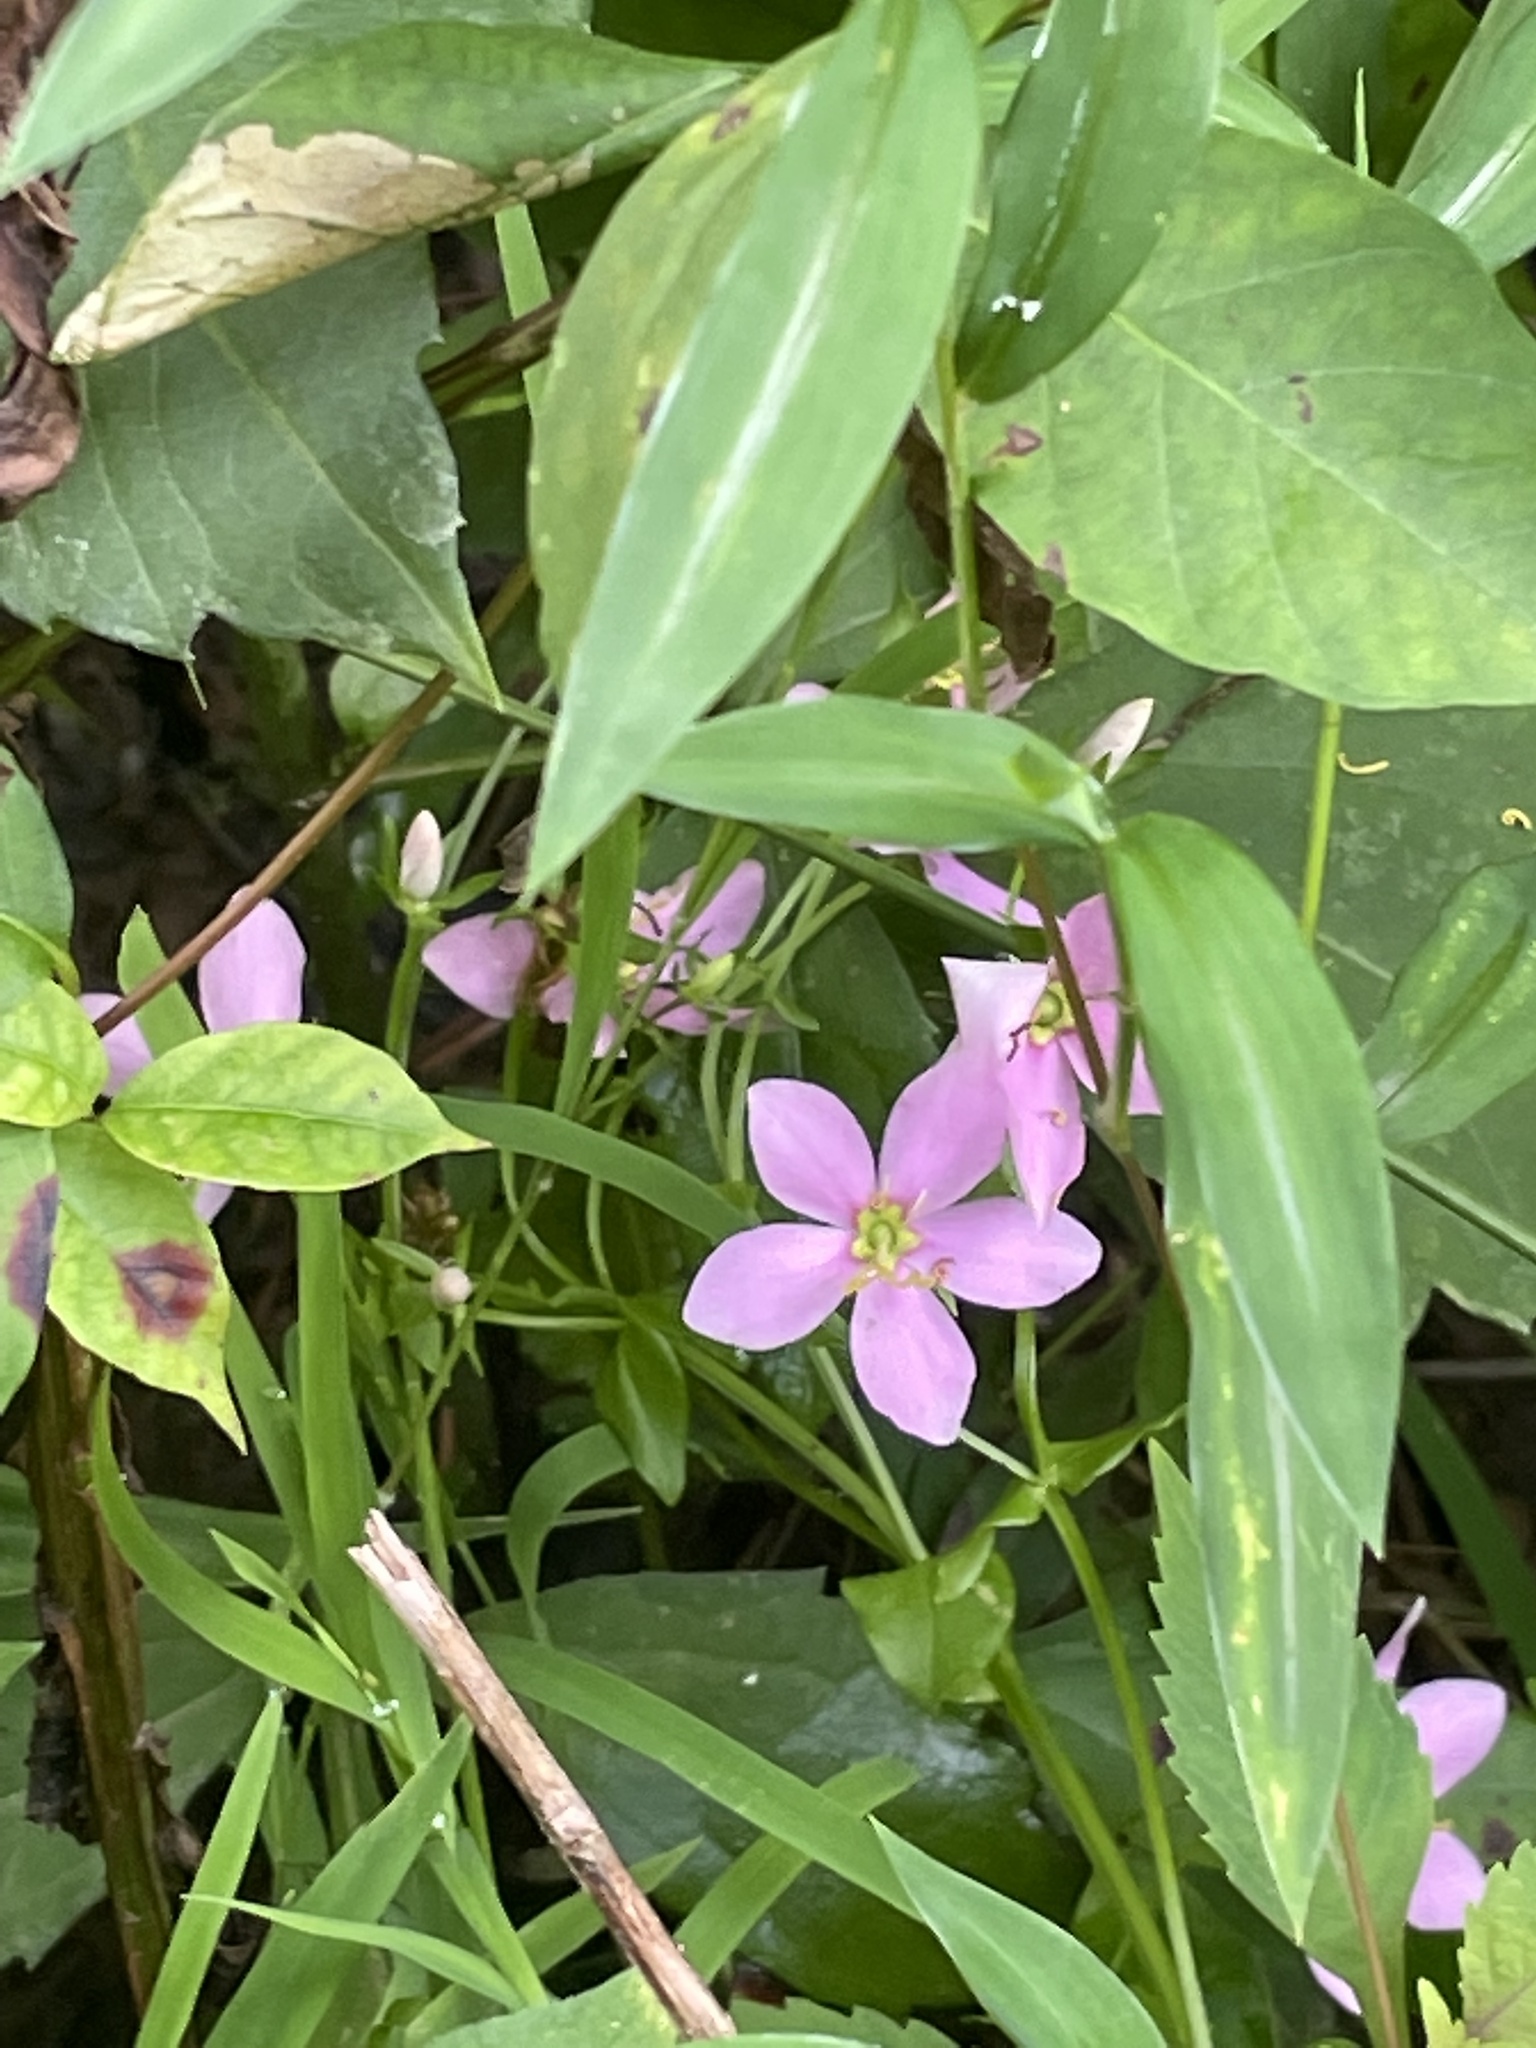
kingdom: Plantae
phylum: Tracheophyta
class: Magnoliopsida
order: Gentianales
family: Gentianaceae
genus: Sabatia
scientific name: Sabatia angularis
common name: Rose-pink
